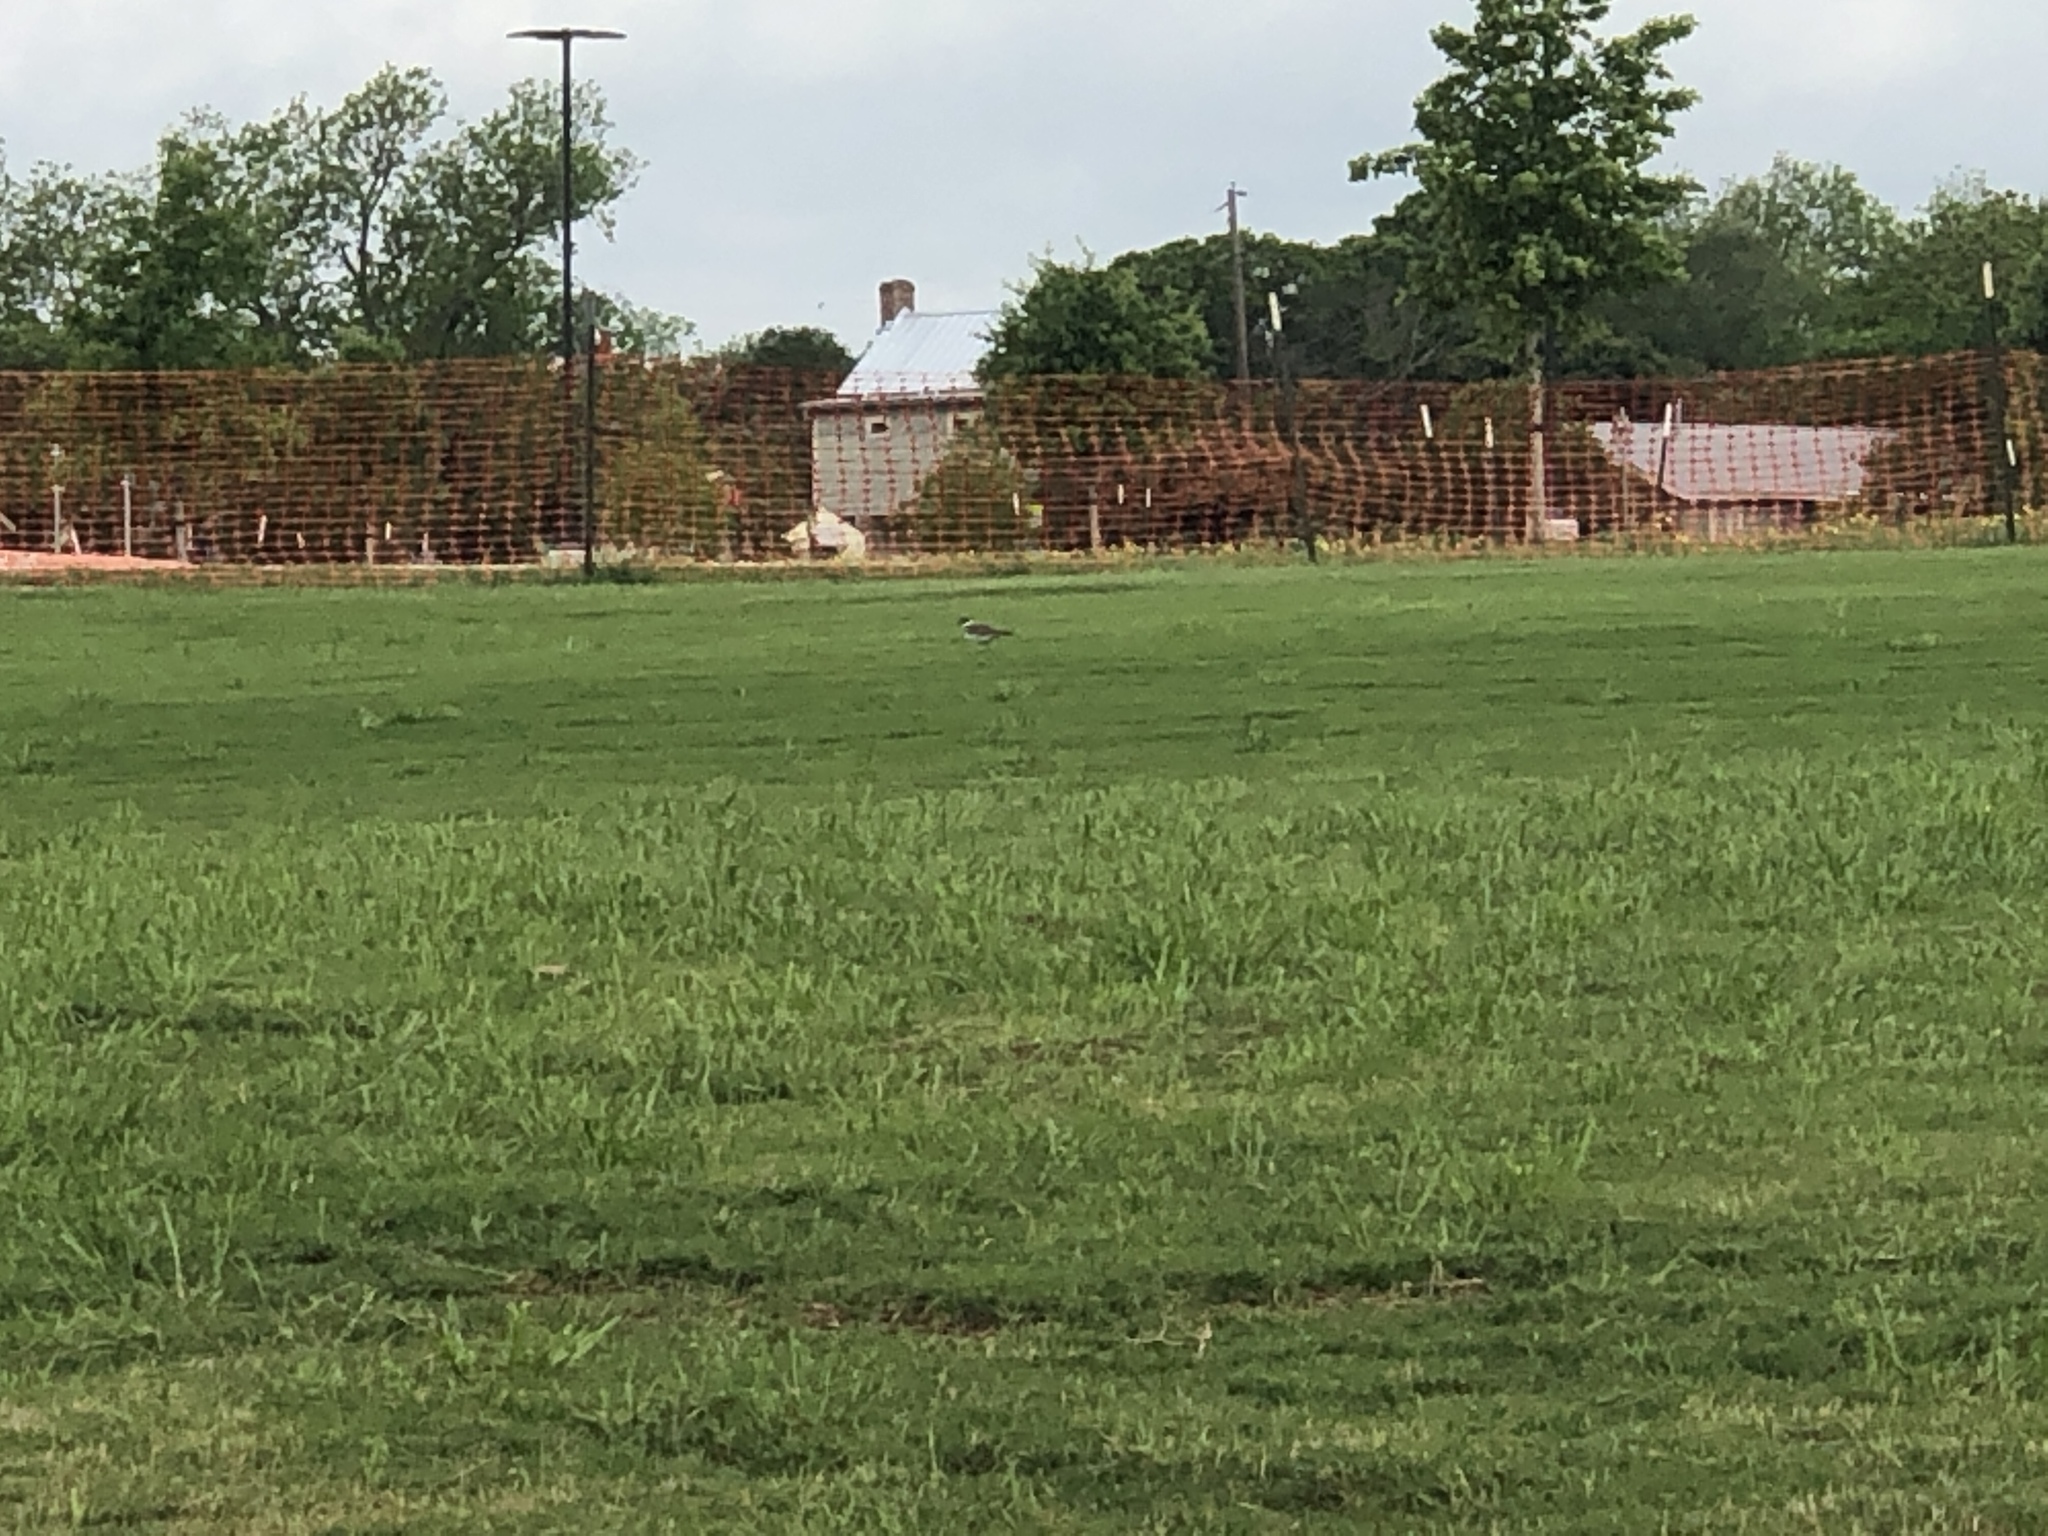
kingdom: Animalia
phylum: Chordata
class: Aves
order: Charadriiformes
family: Charadriidae
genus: Charadrius
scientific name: Charadrius vociferus
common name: Killdeer
